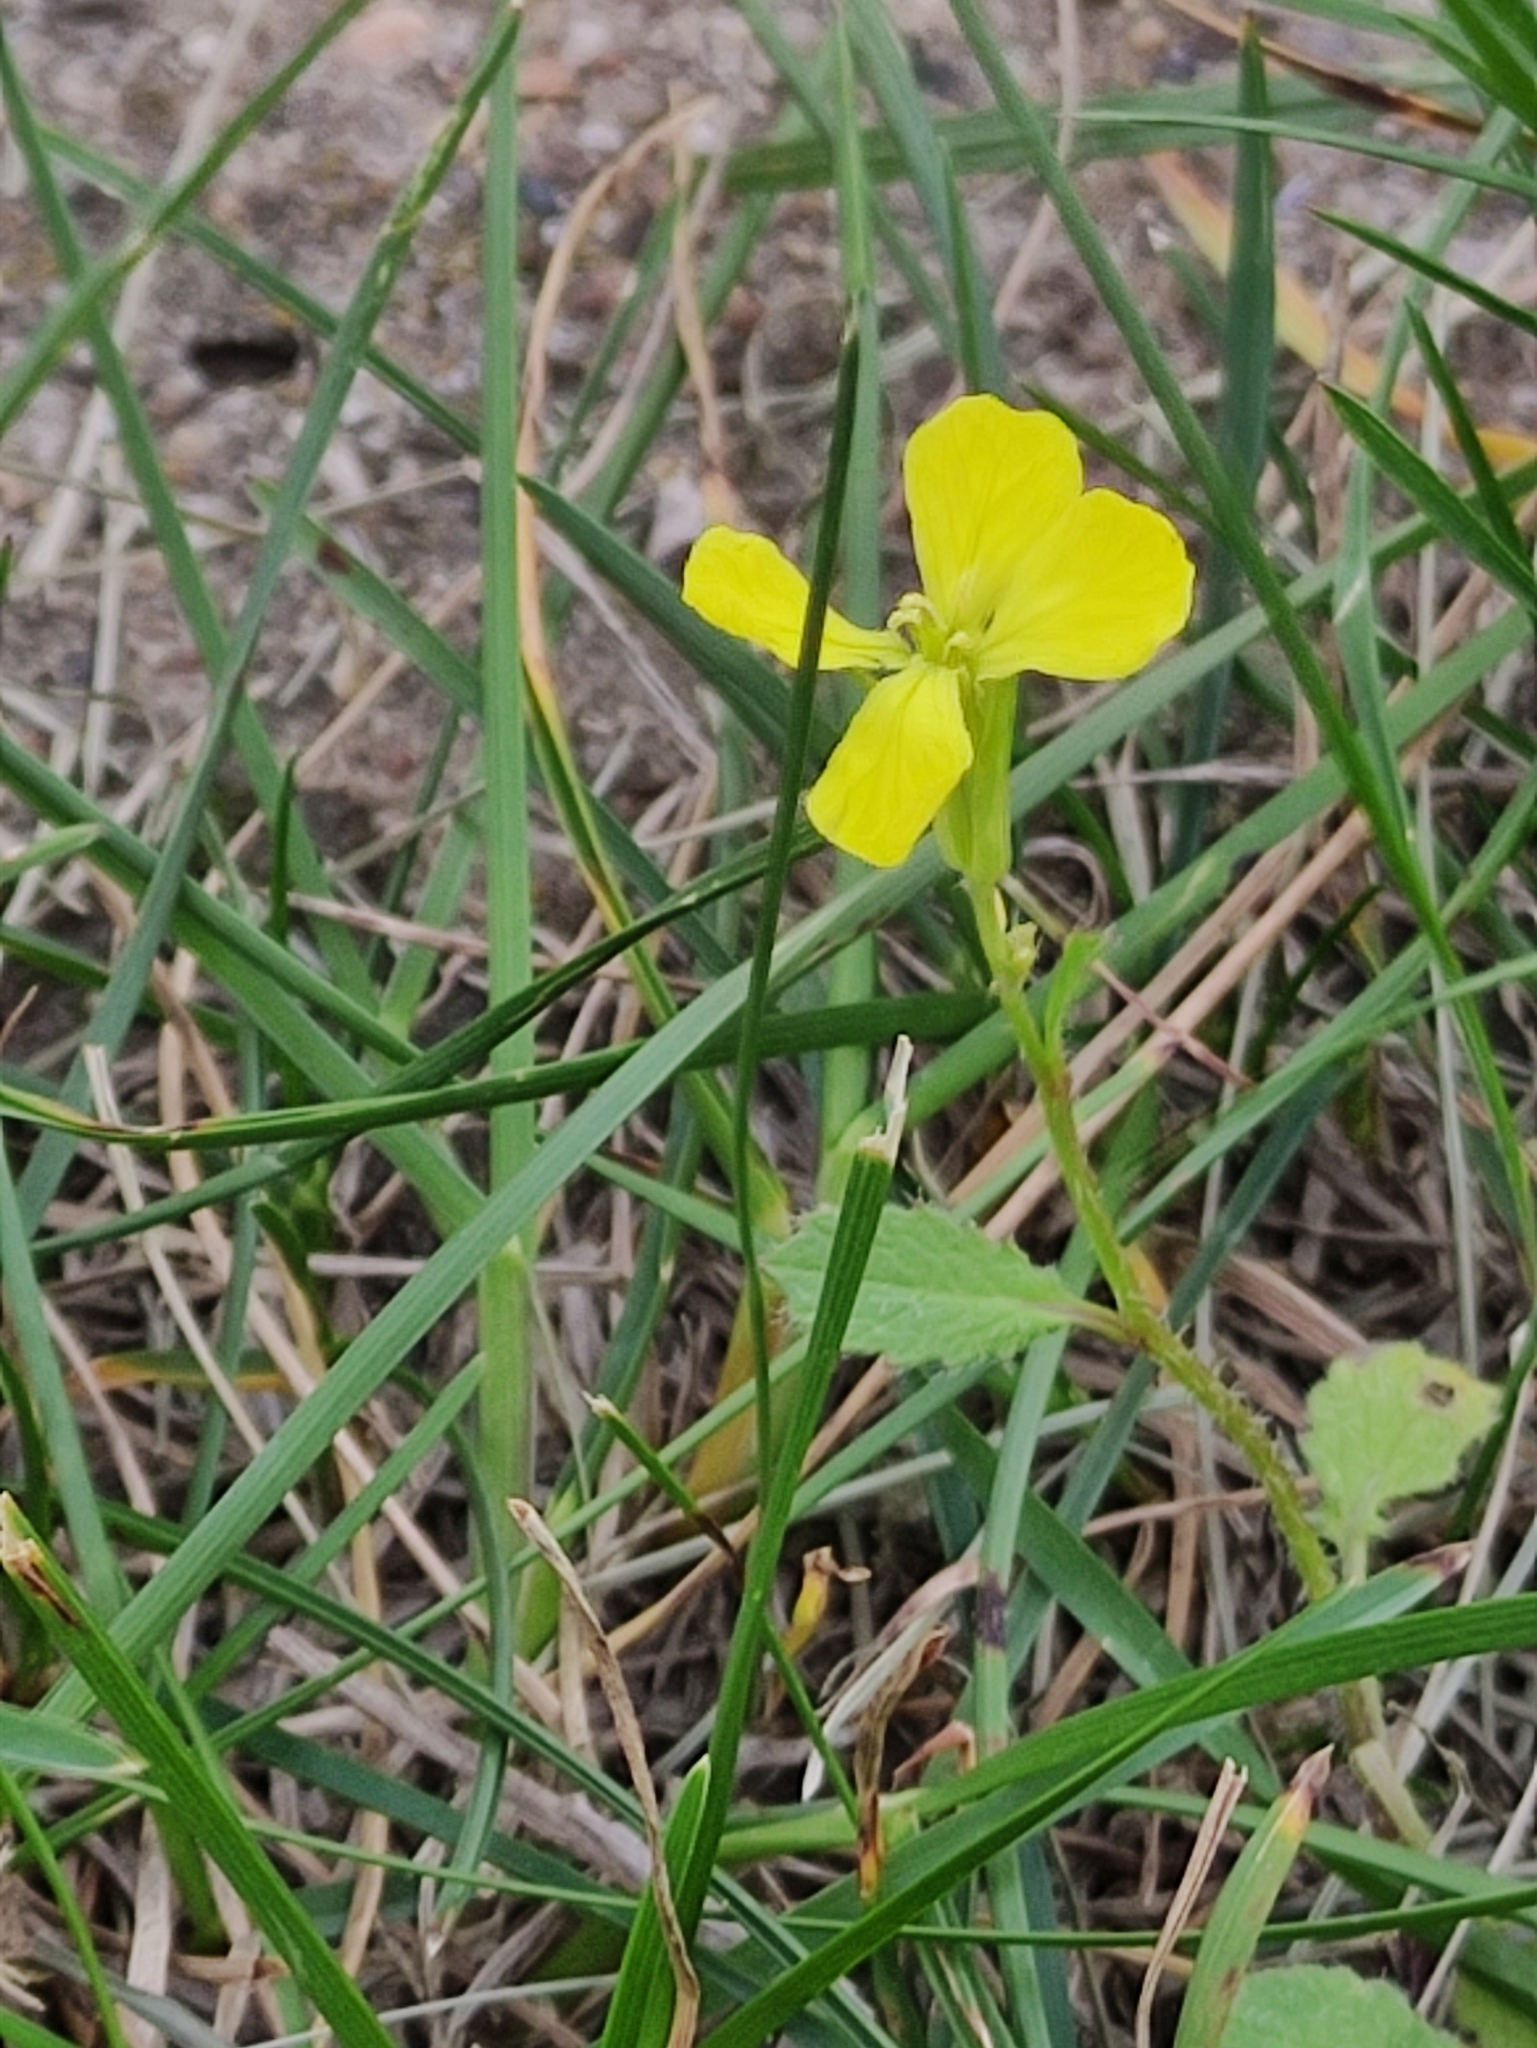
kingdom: Plantae
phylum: Tracheophyta
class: Magnoliopsida
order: Brassicales
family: Brassicaceae
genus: Sinapis
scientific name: Sinapis arvensis
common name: Charlock
